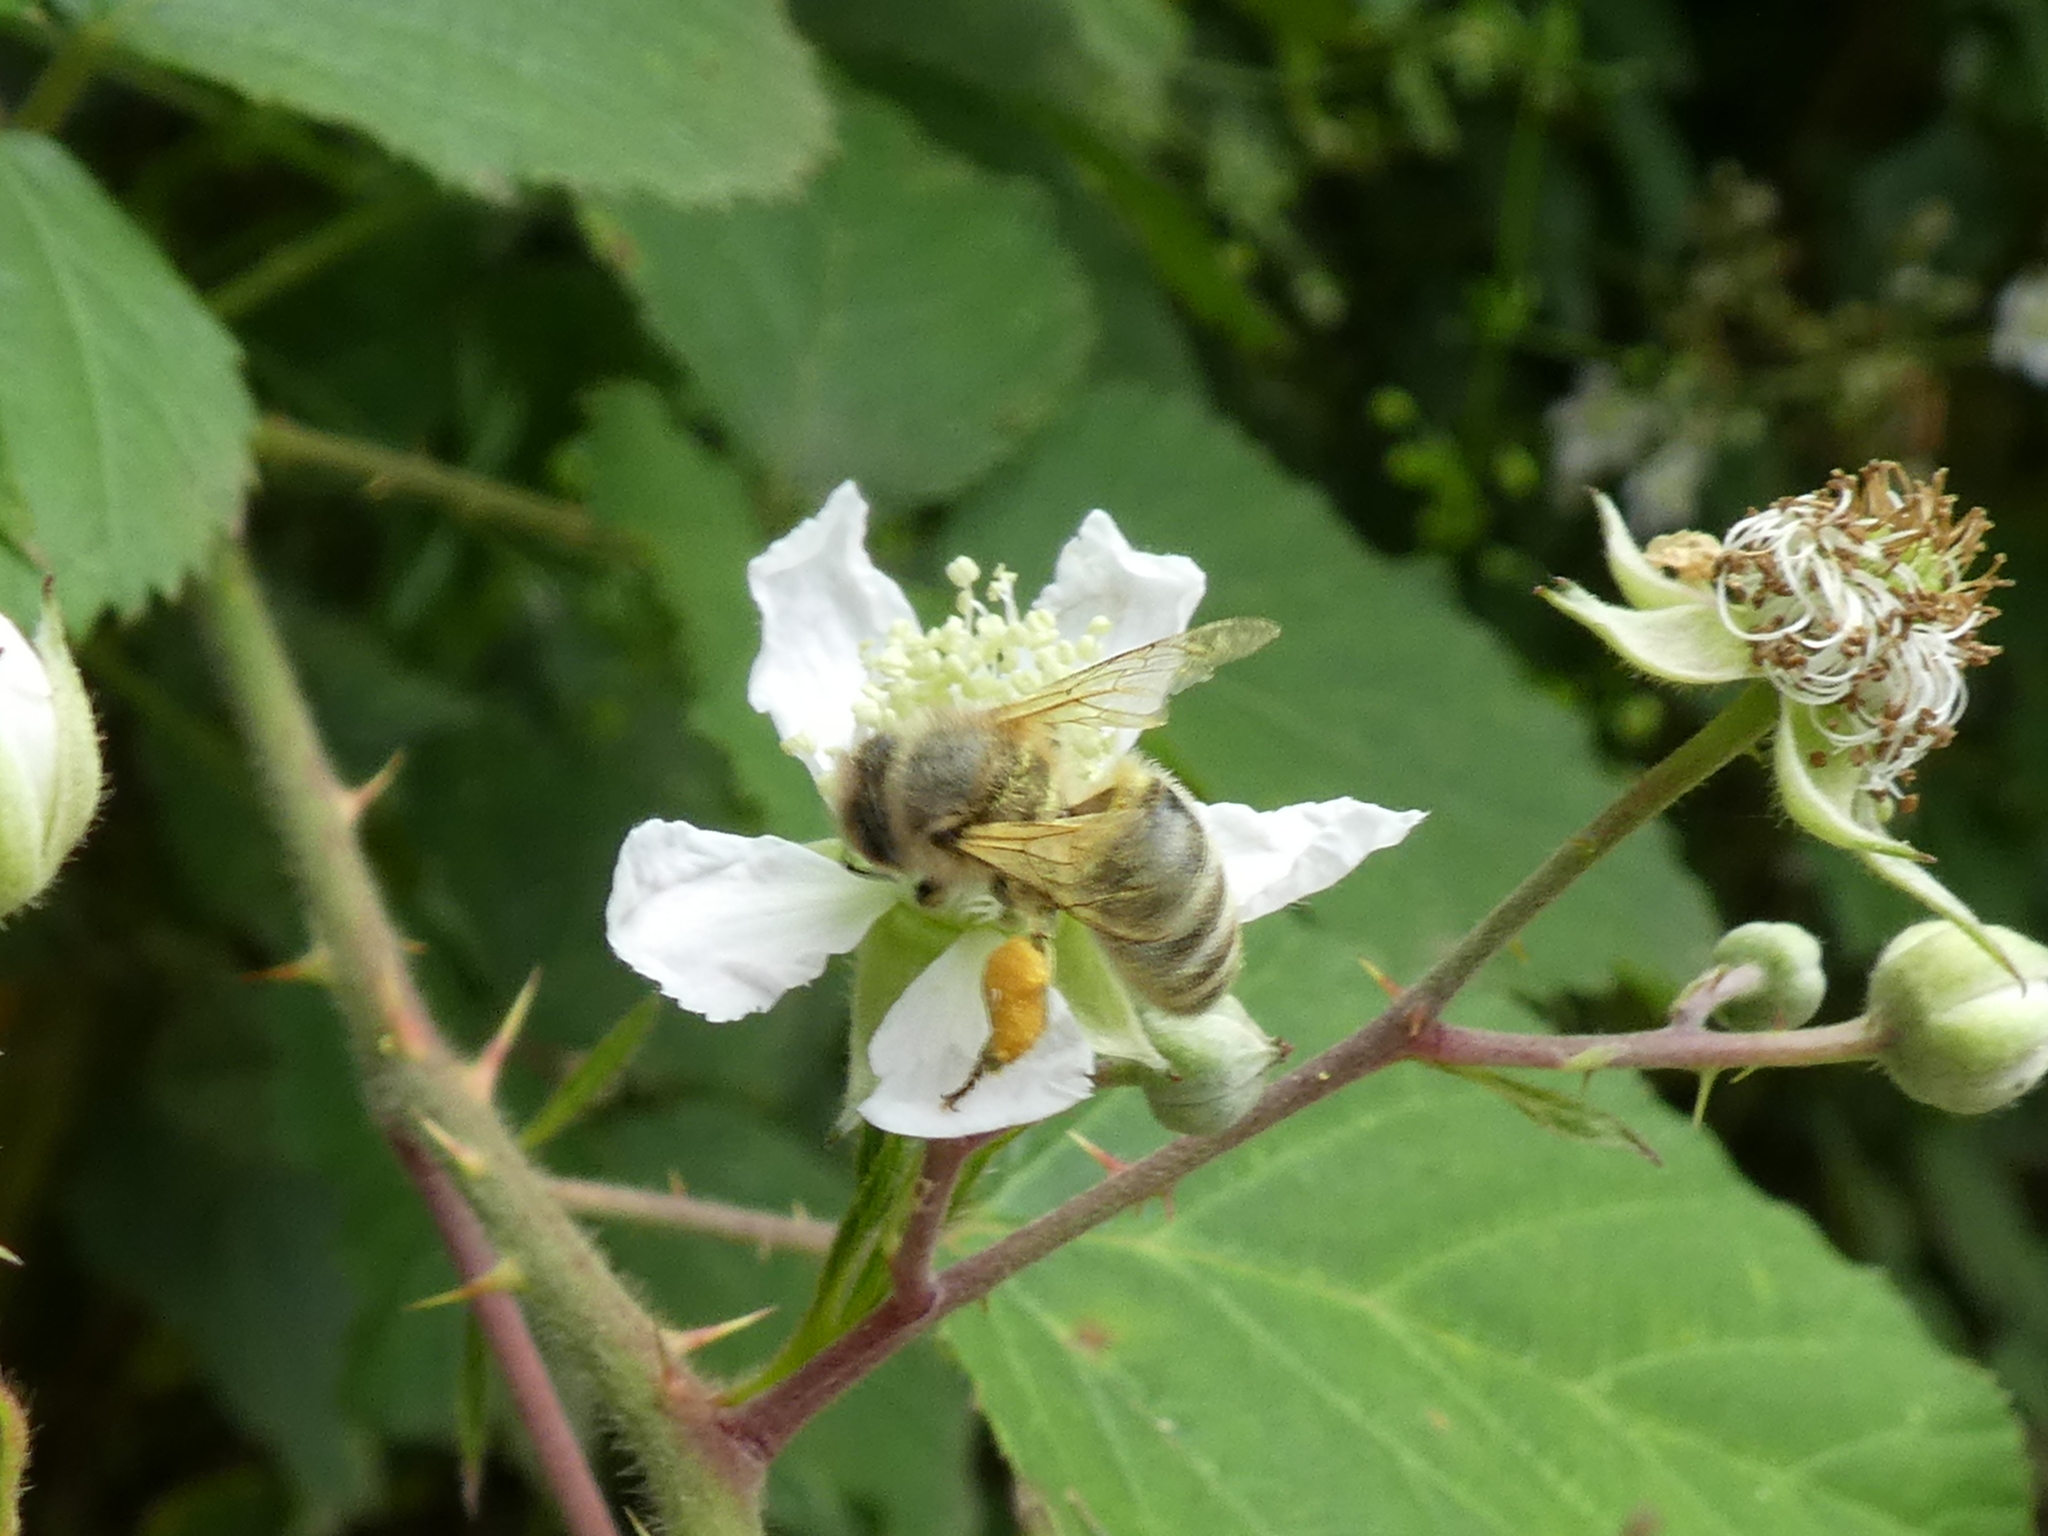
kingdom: Animalia
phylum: Arthropoda
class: Insecta
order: Hymenoptera
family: Apidae
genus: Apis
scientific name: Apis mellifera
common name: Honey bee
